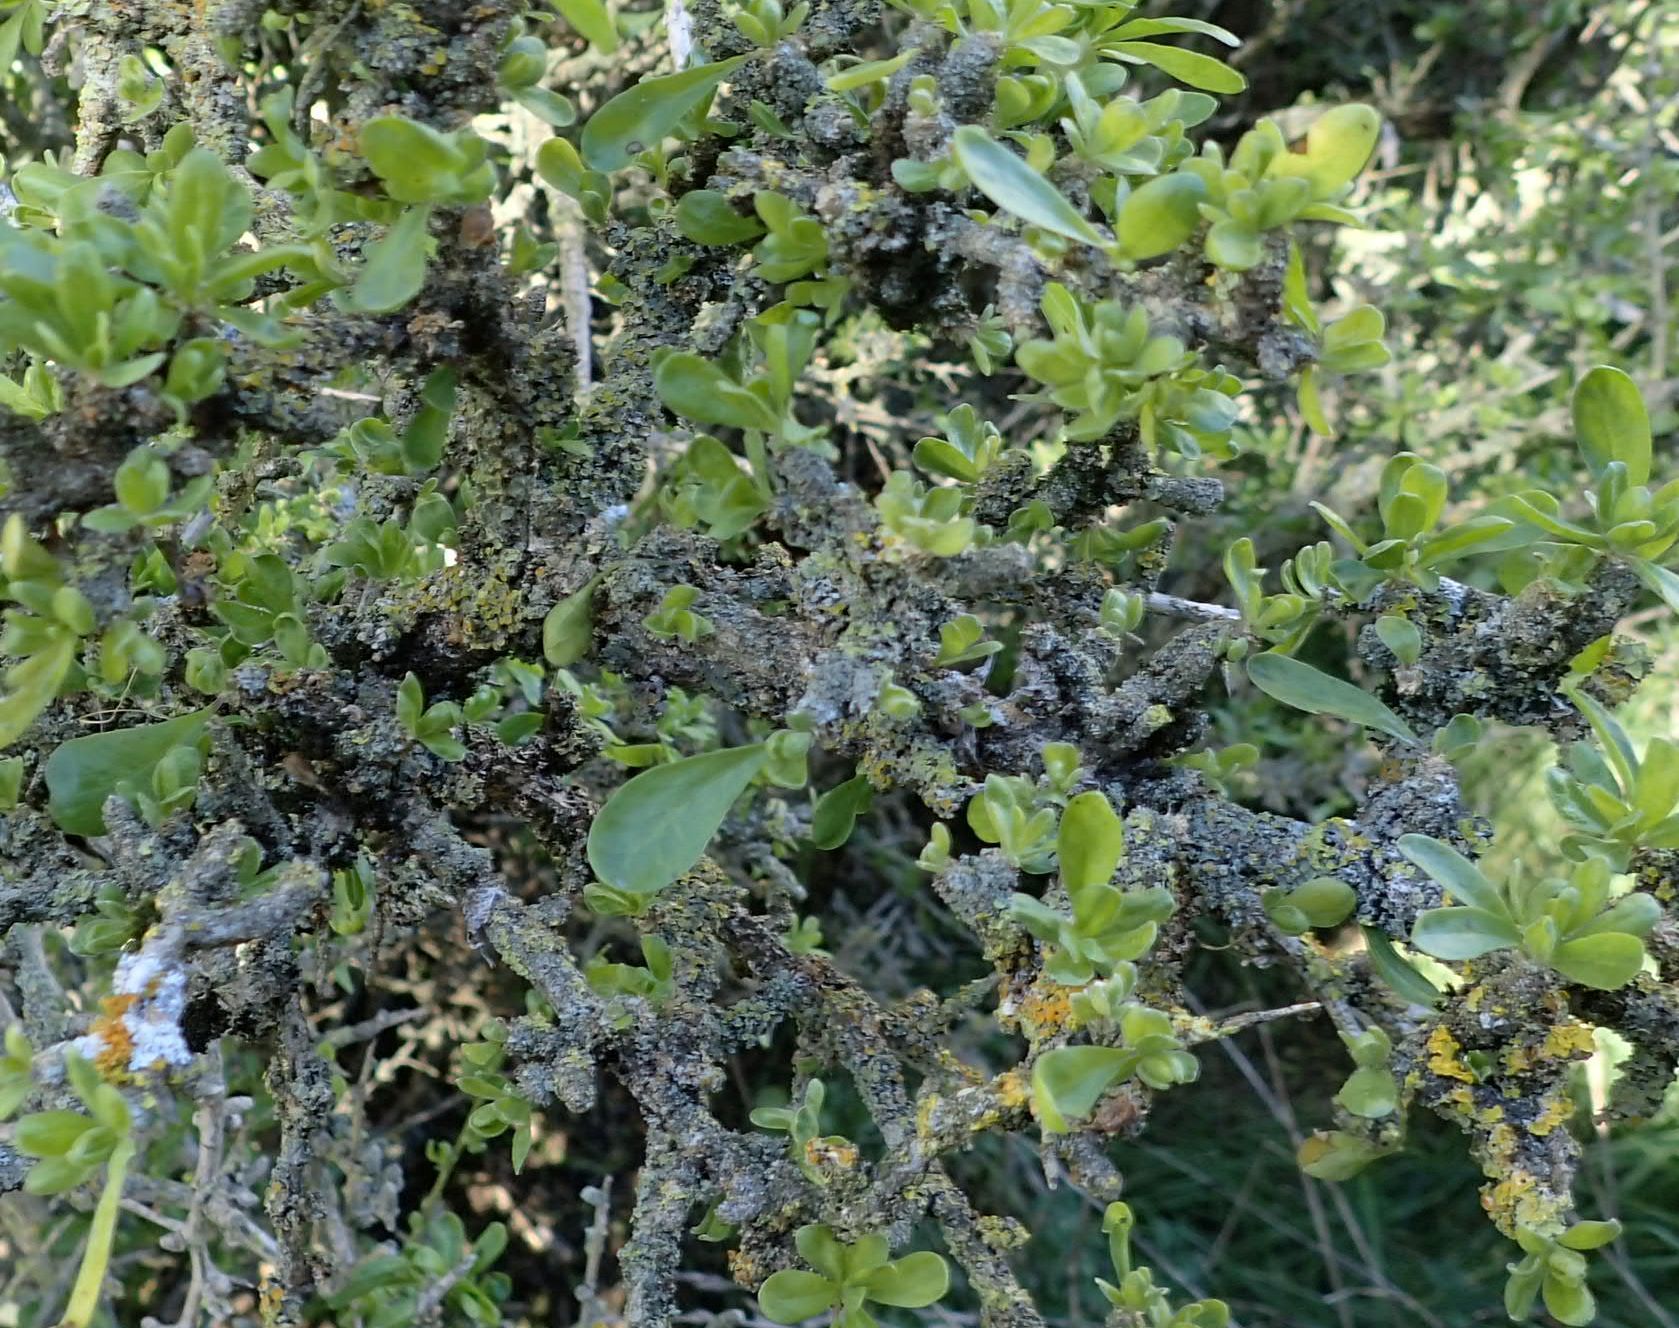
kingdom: Plantae
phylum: Tracheophyta
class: Magnoliopsida
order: Solanales
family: Solanaceae
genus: Lycium
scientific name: Lycium ferocissimum
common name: African boxthorn
